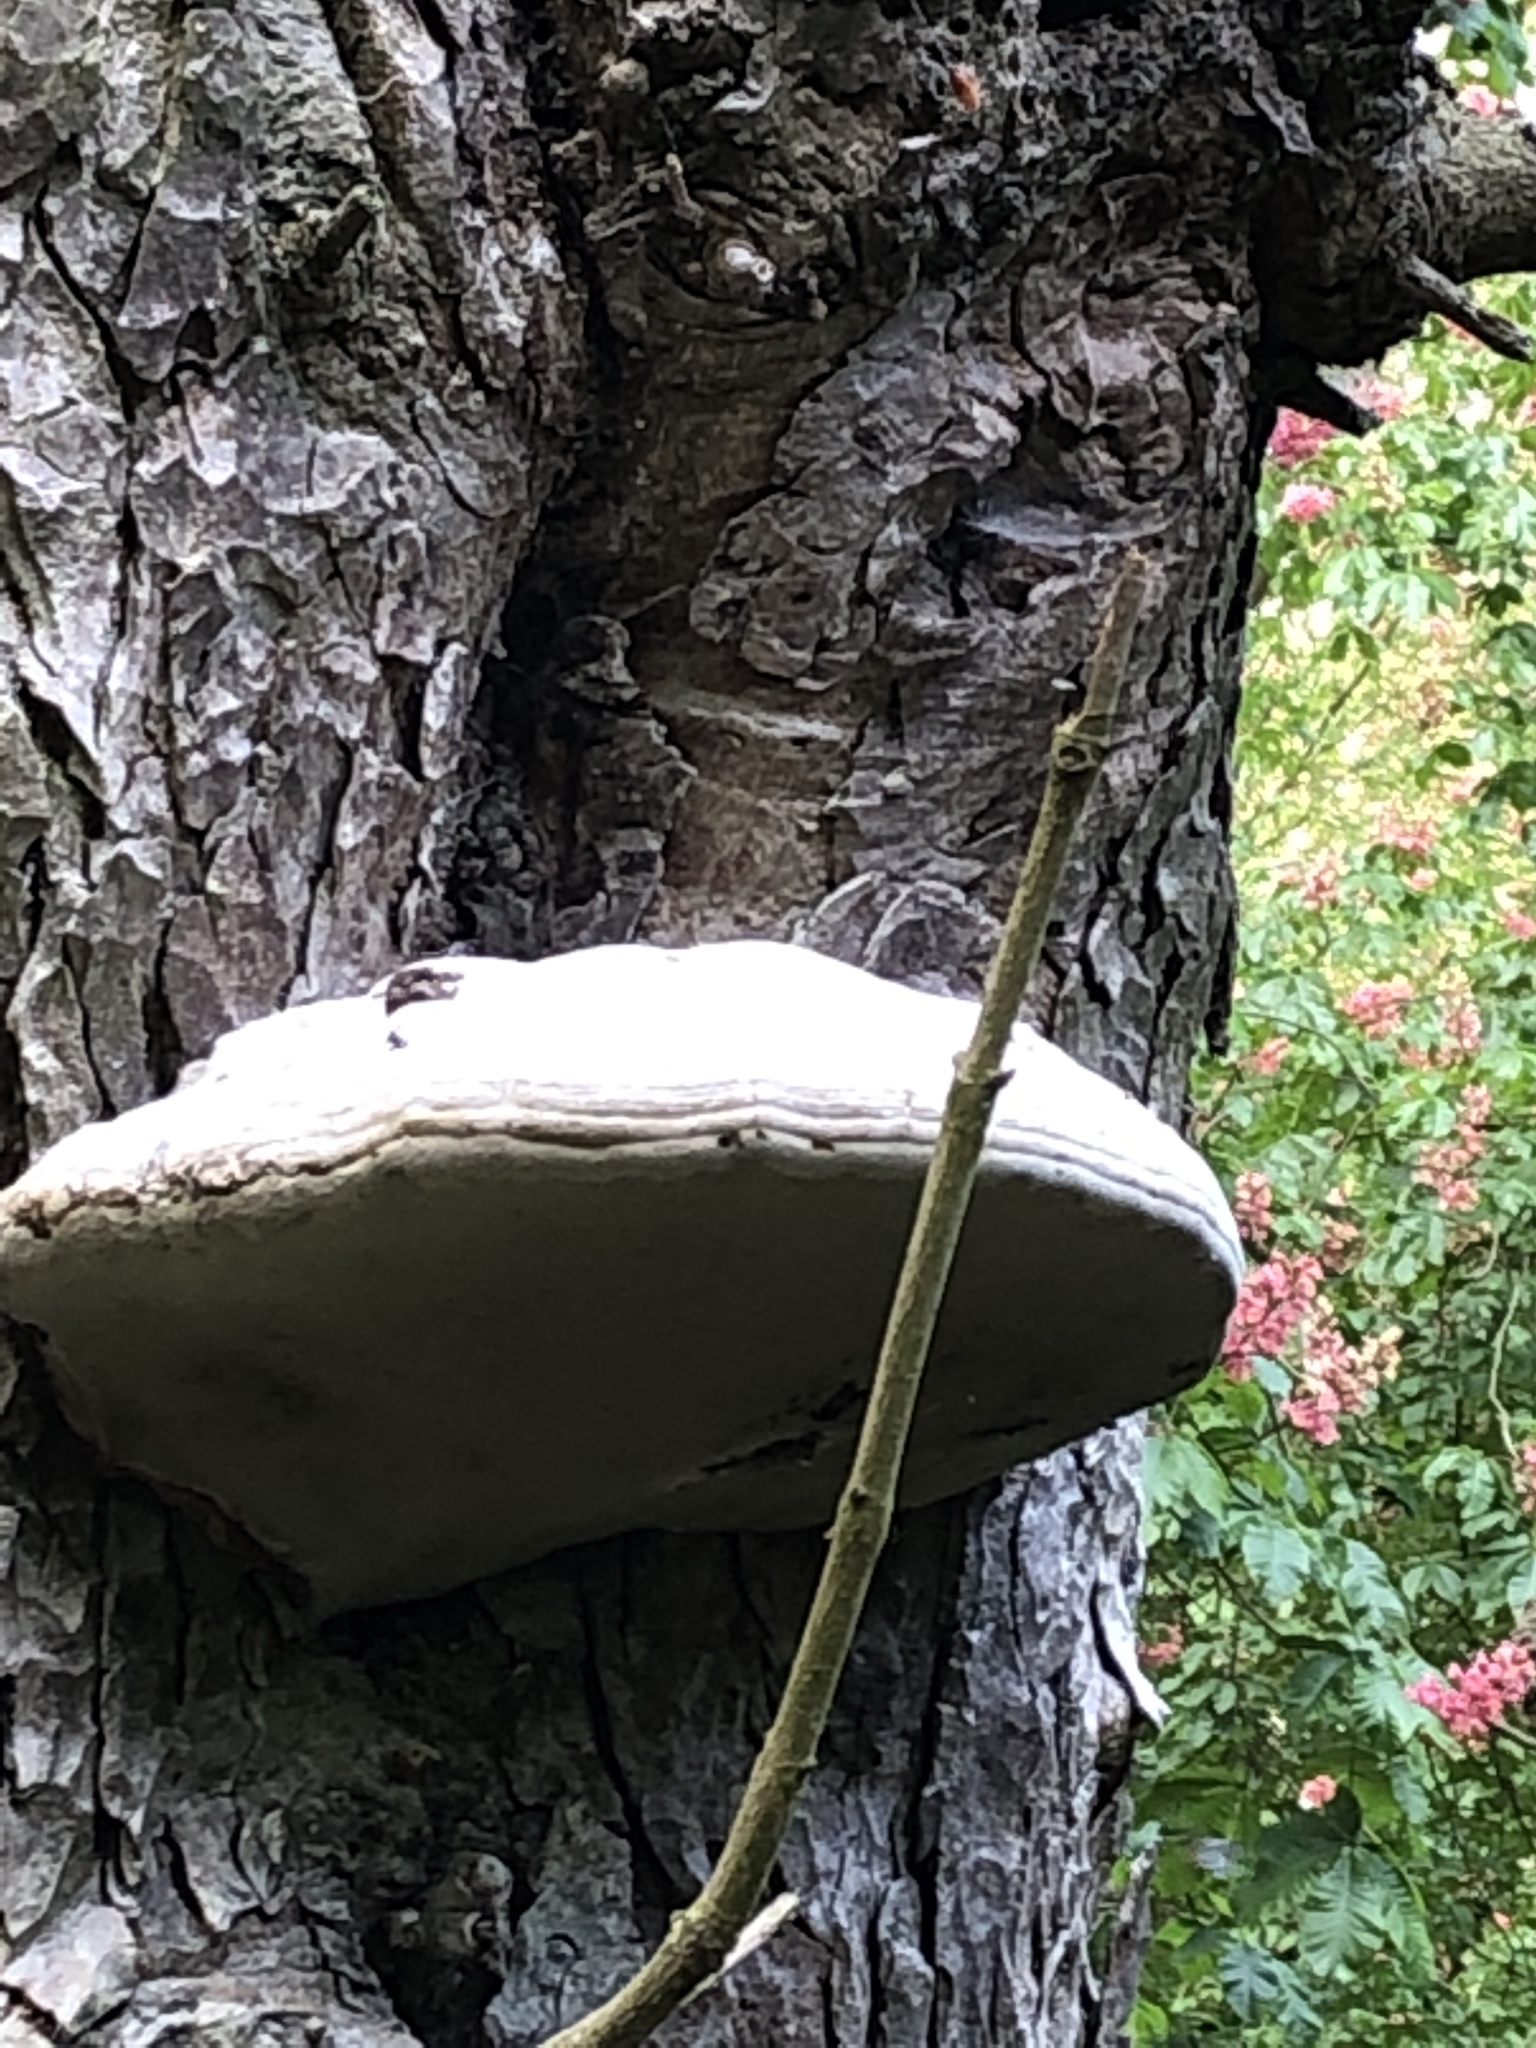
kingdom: Fungi
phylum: Basidiomycota
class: Agaricomycetes
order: Polyporales
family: Polyporaceae
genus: Fomes
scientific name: Fomes fomentarius
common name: Hoof fungus
